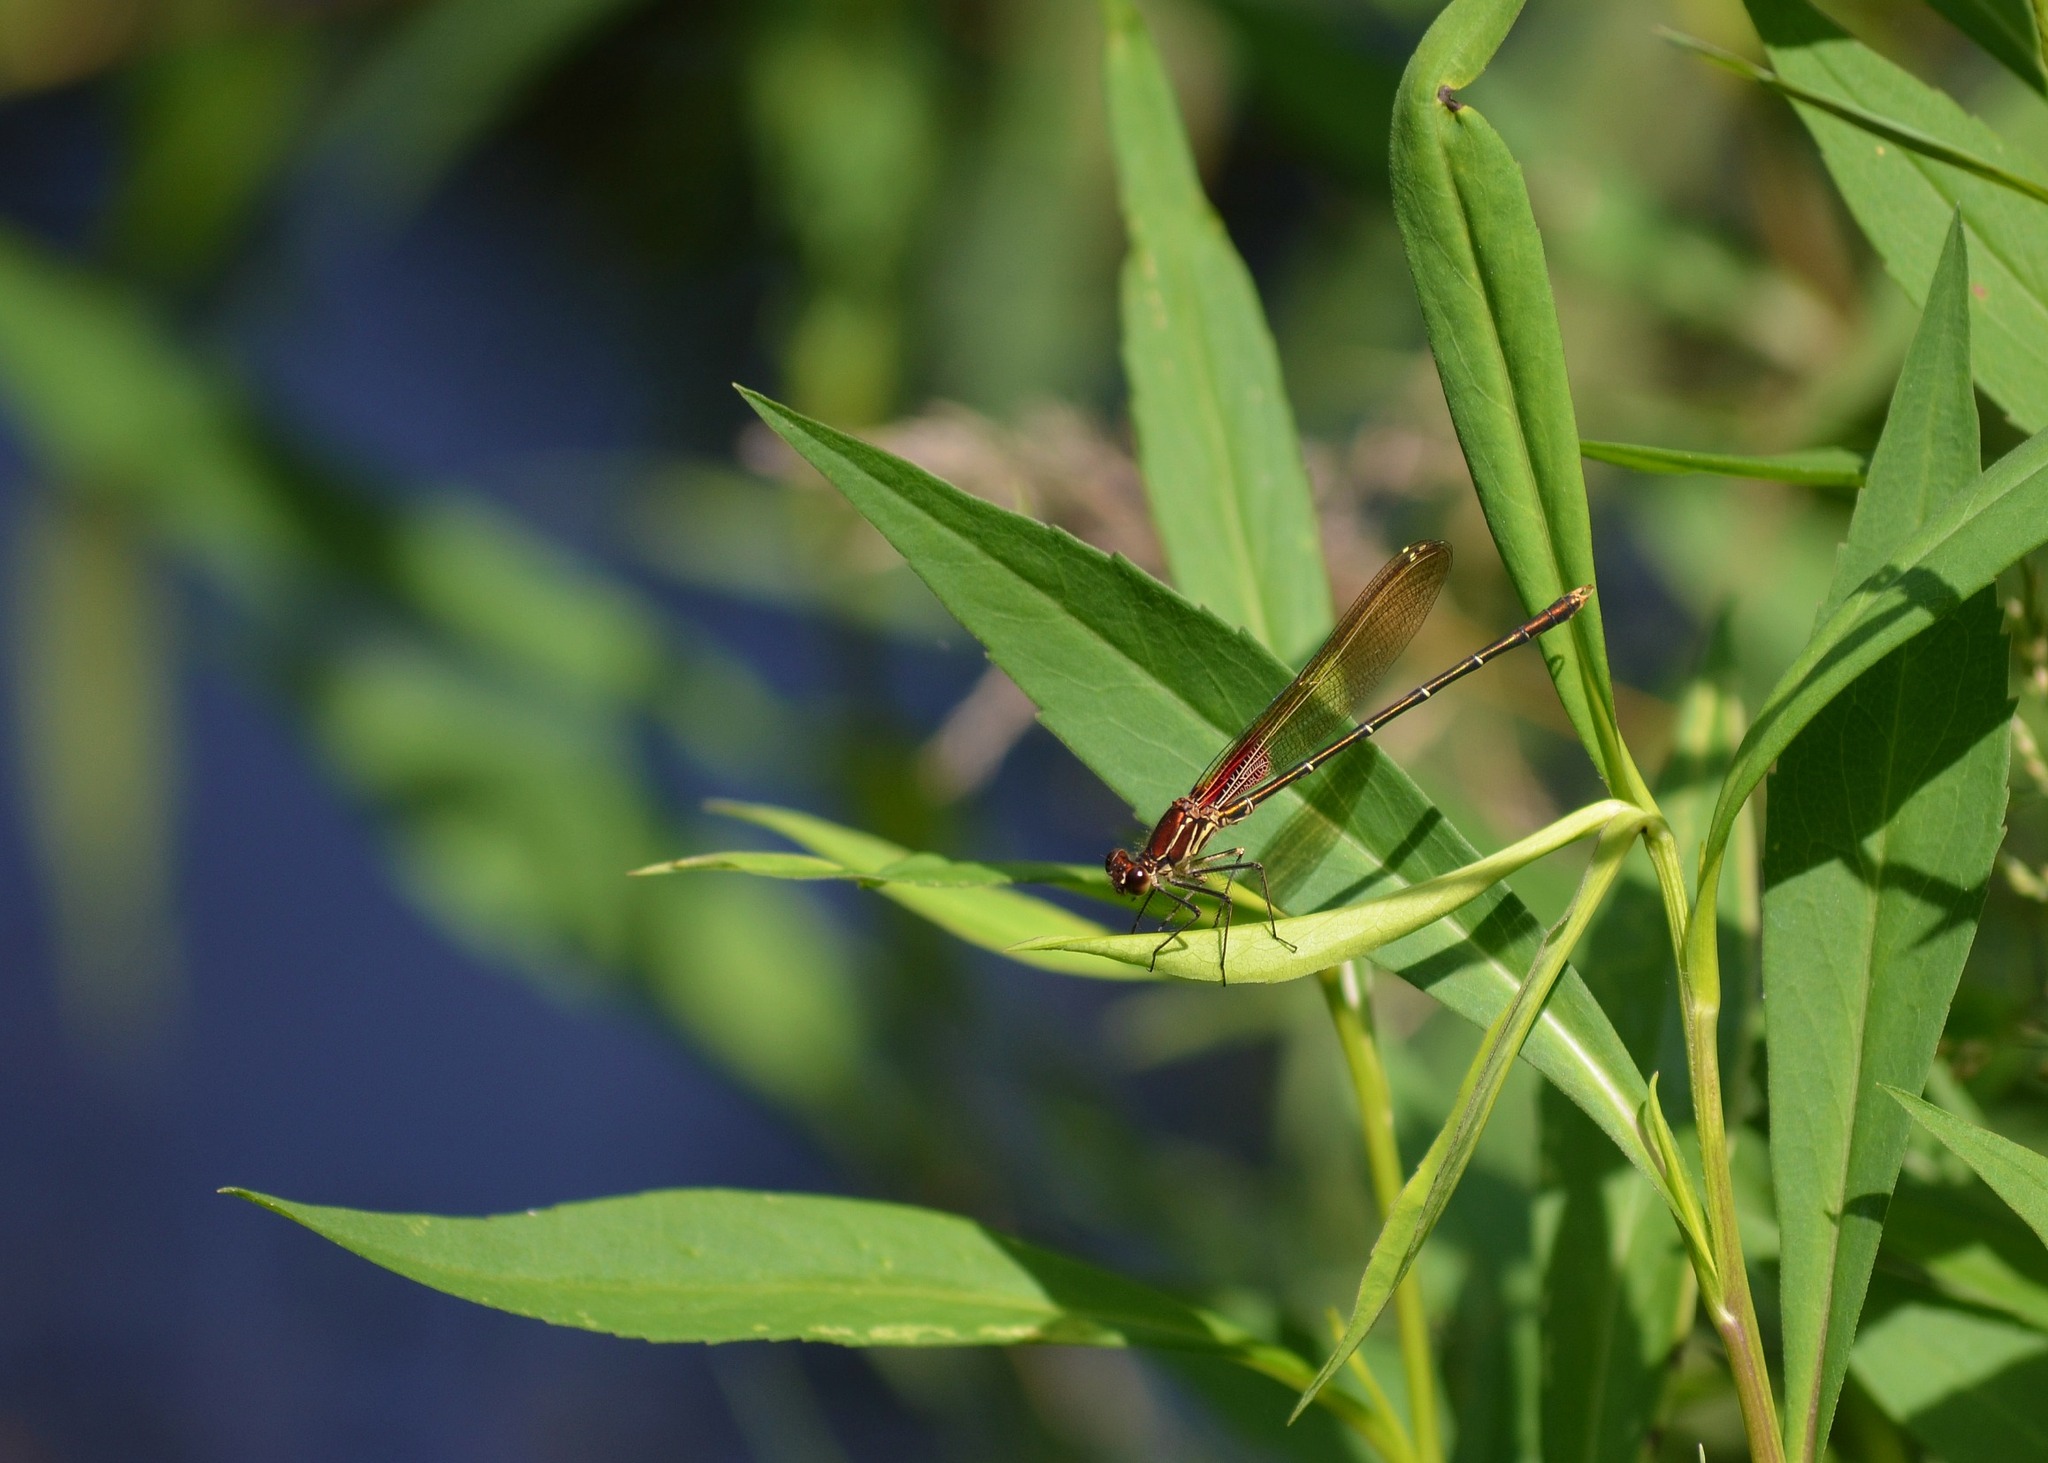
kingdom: Animalia
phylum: Arthropoda
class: Insecta
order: Odonata
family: Calopterygidae
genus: Hetaerina
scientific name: Hetaerina americana
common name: American rubyspot
